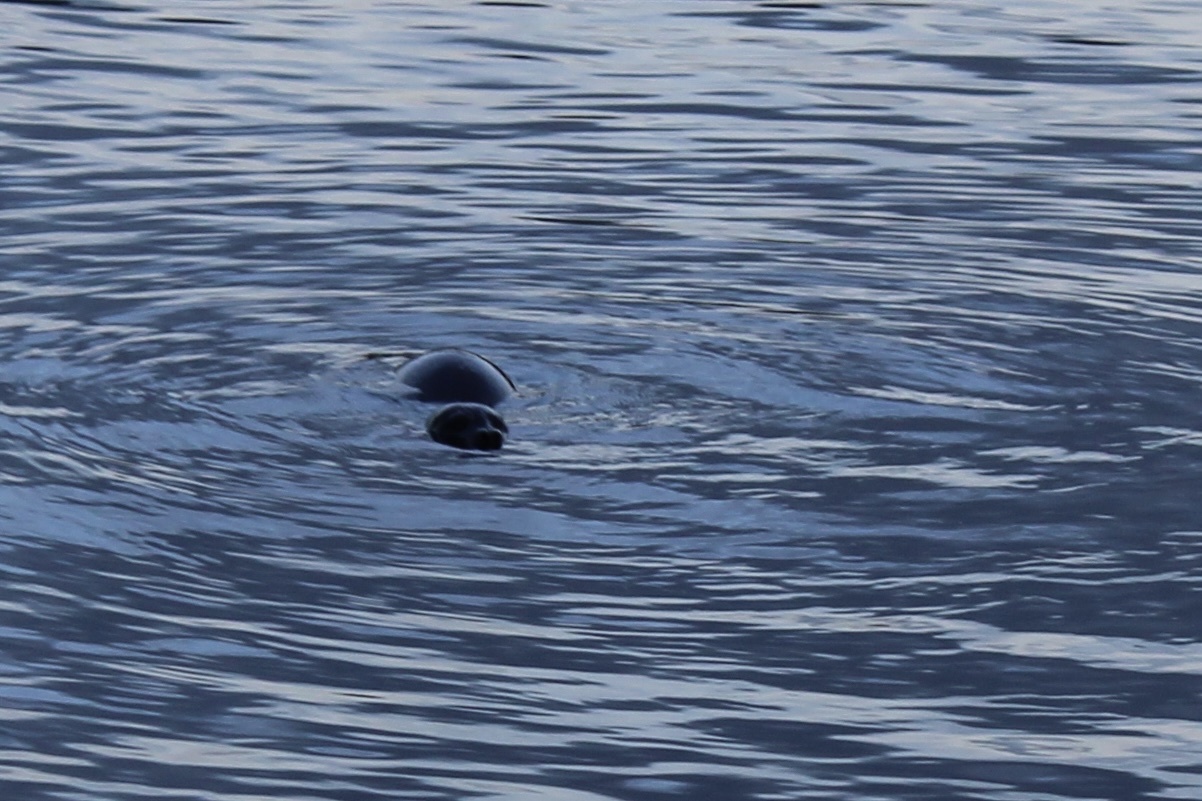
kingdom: Animalia
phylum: Chordata
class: Mammalia
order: Carnivora
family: Phocidae
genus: Phoca
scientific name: Phoca vitulina
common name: Harbor seal
